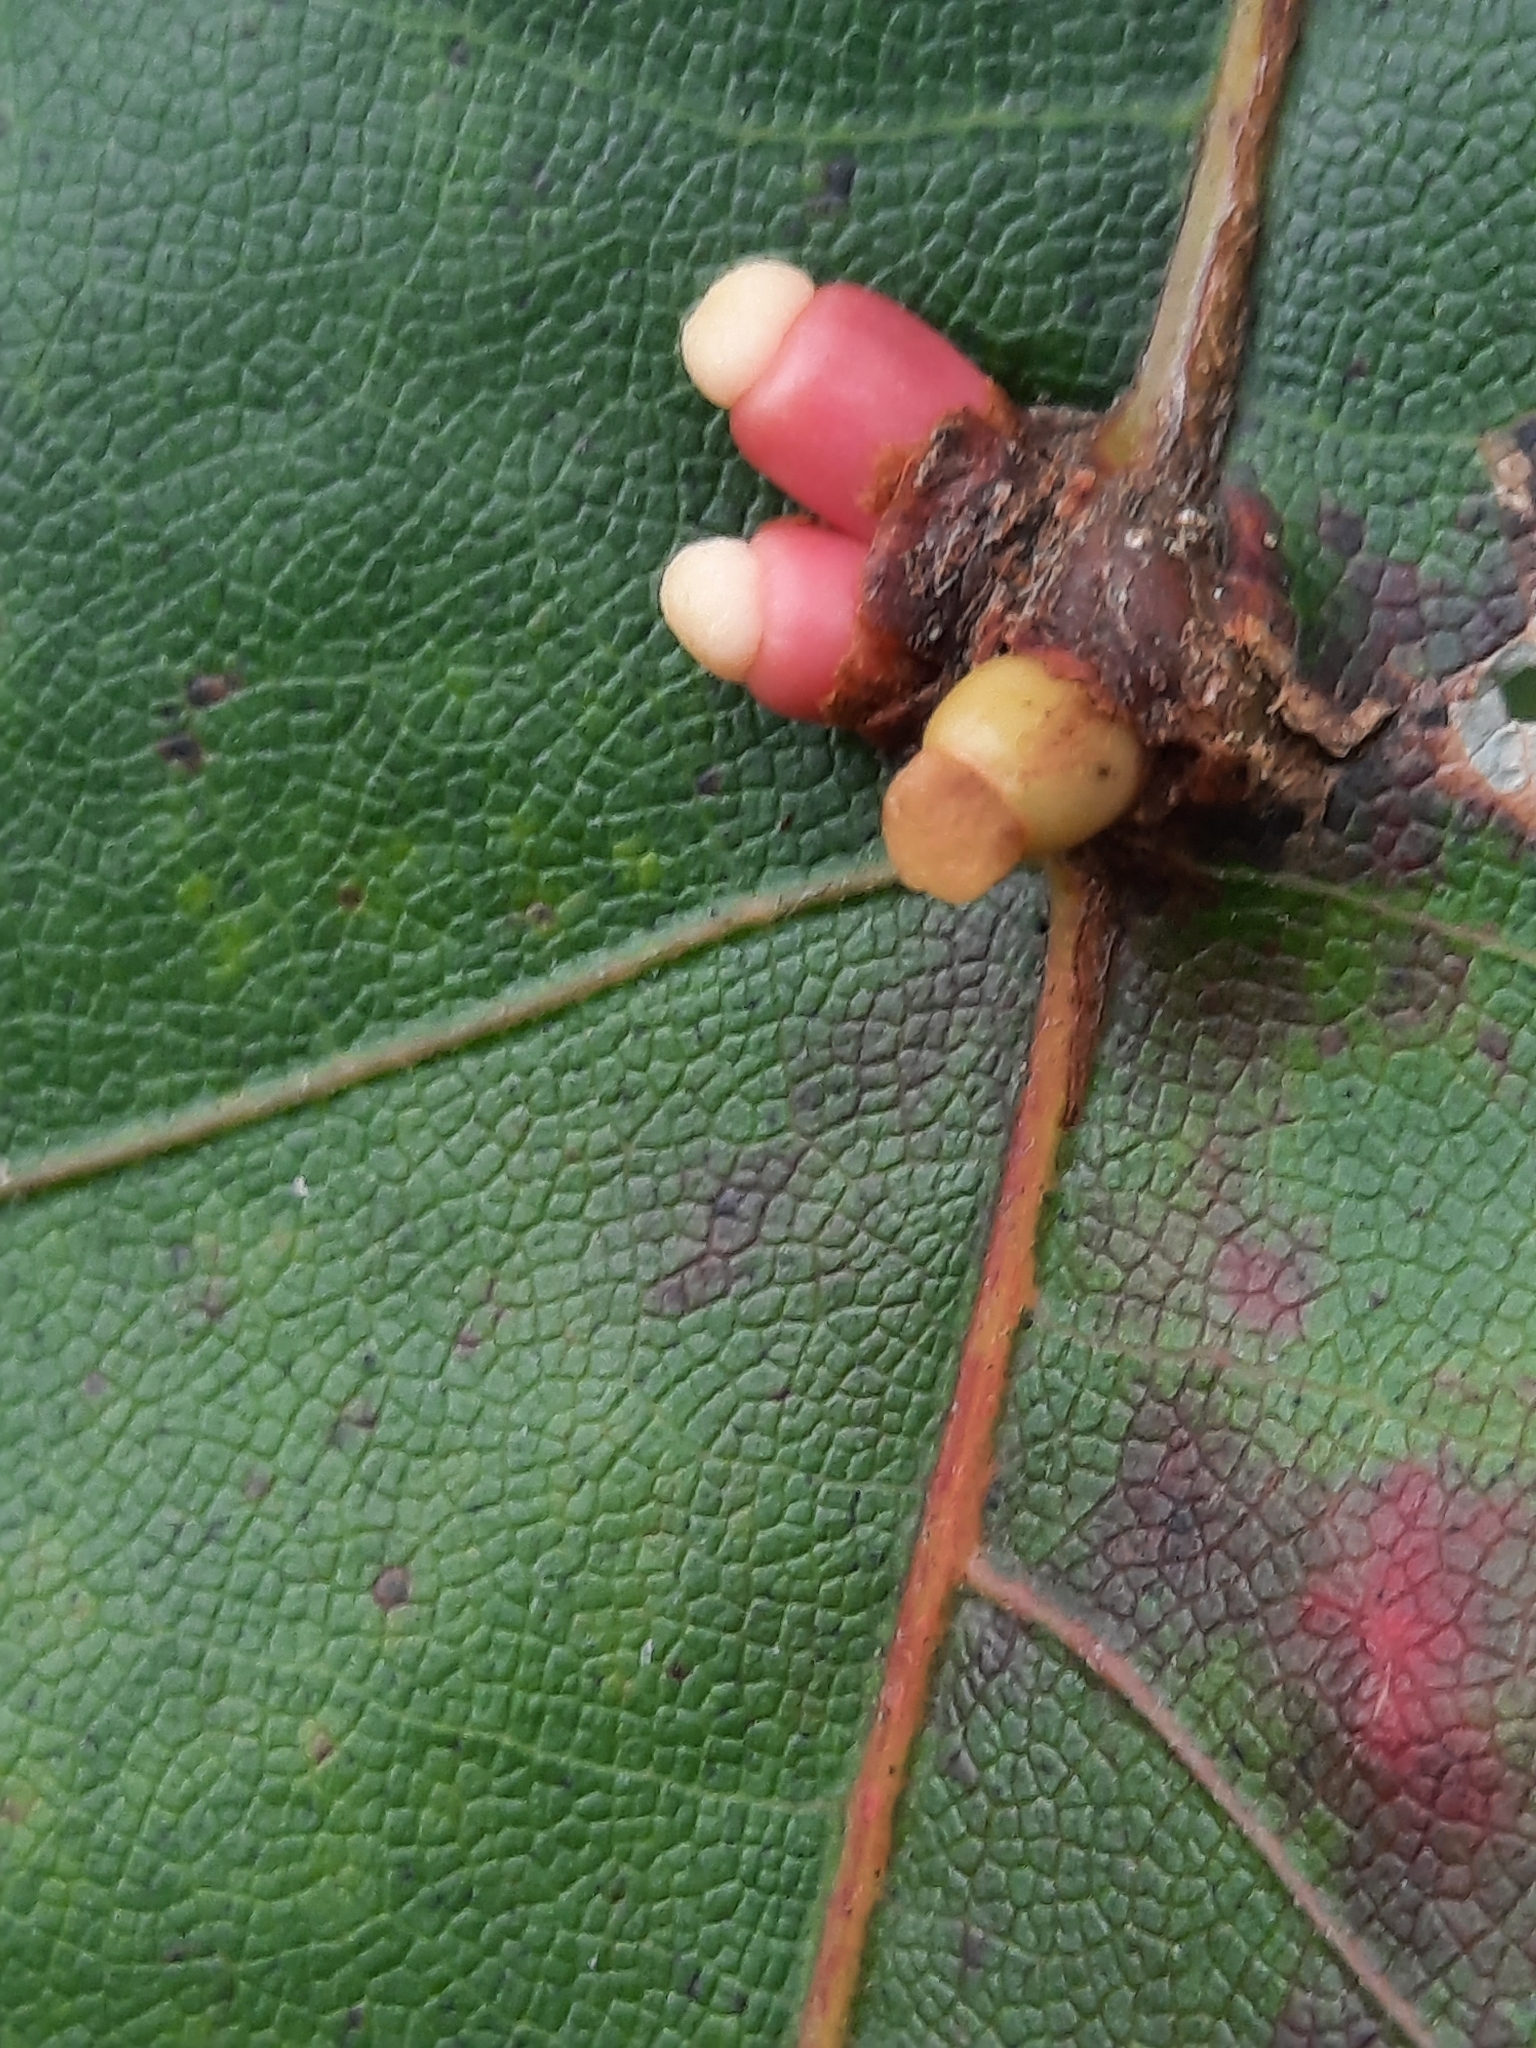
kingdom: Animalia
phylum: Arthropoda
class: Insecta
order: Hymenoptera
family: Cynipidae
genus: Kokkocynips
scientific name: Kokkocynips decidua
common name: Oak wheat gall
